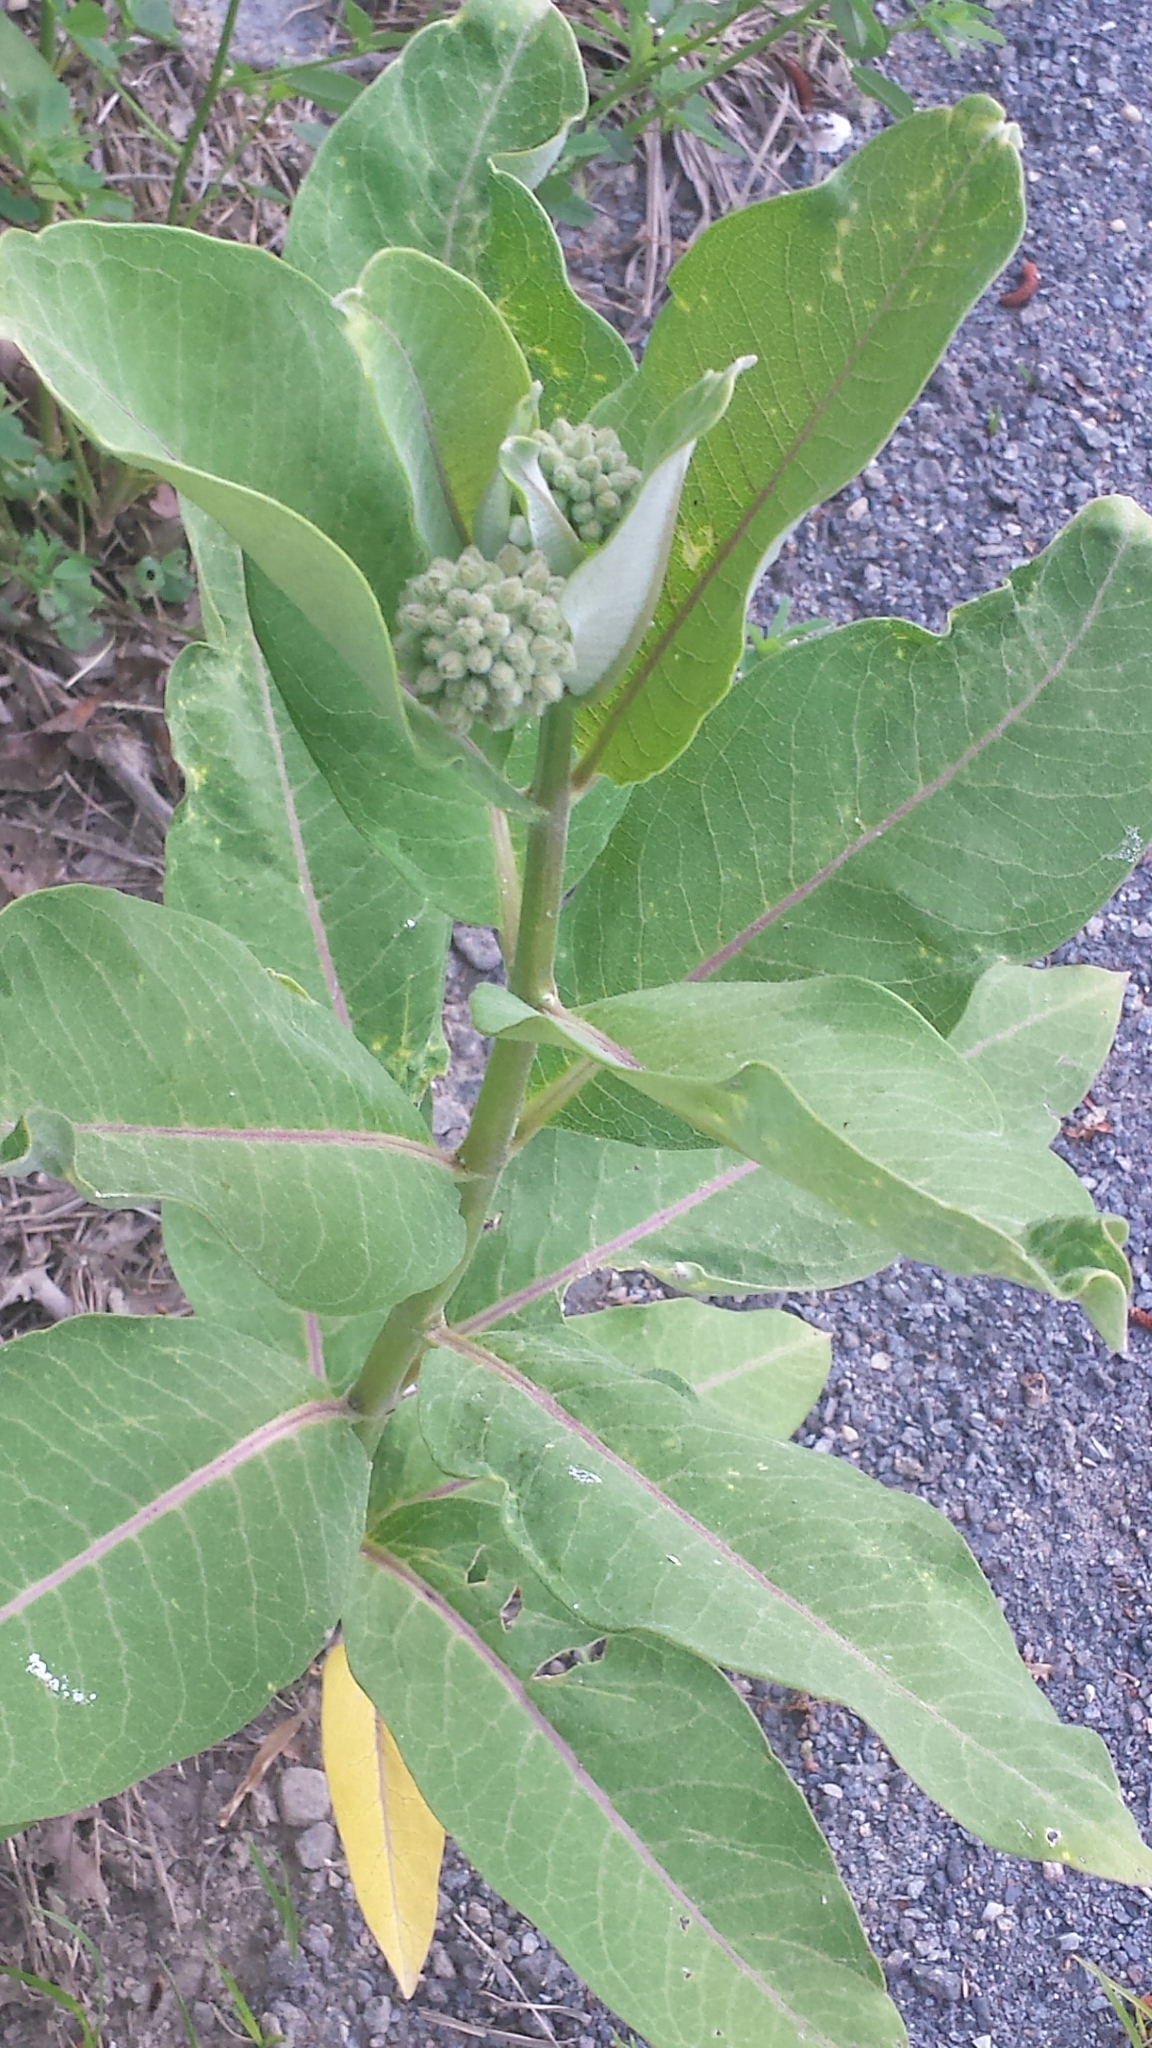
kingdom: Plantae
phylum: Tracheophyta
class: Magnoliopsida
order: Gentianales
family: Apocynaceae
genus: Asclepias
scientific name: Asclepias syriaca
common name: Common milkweed
